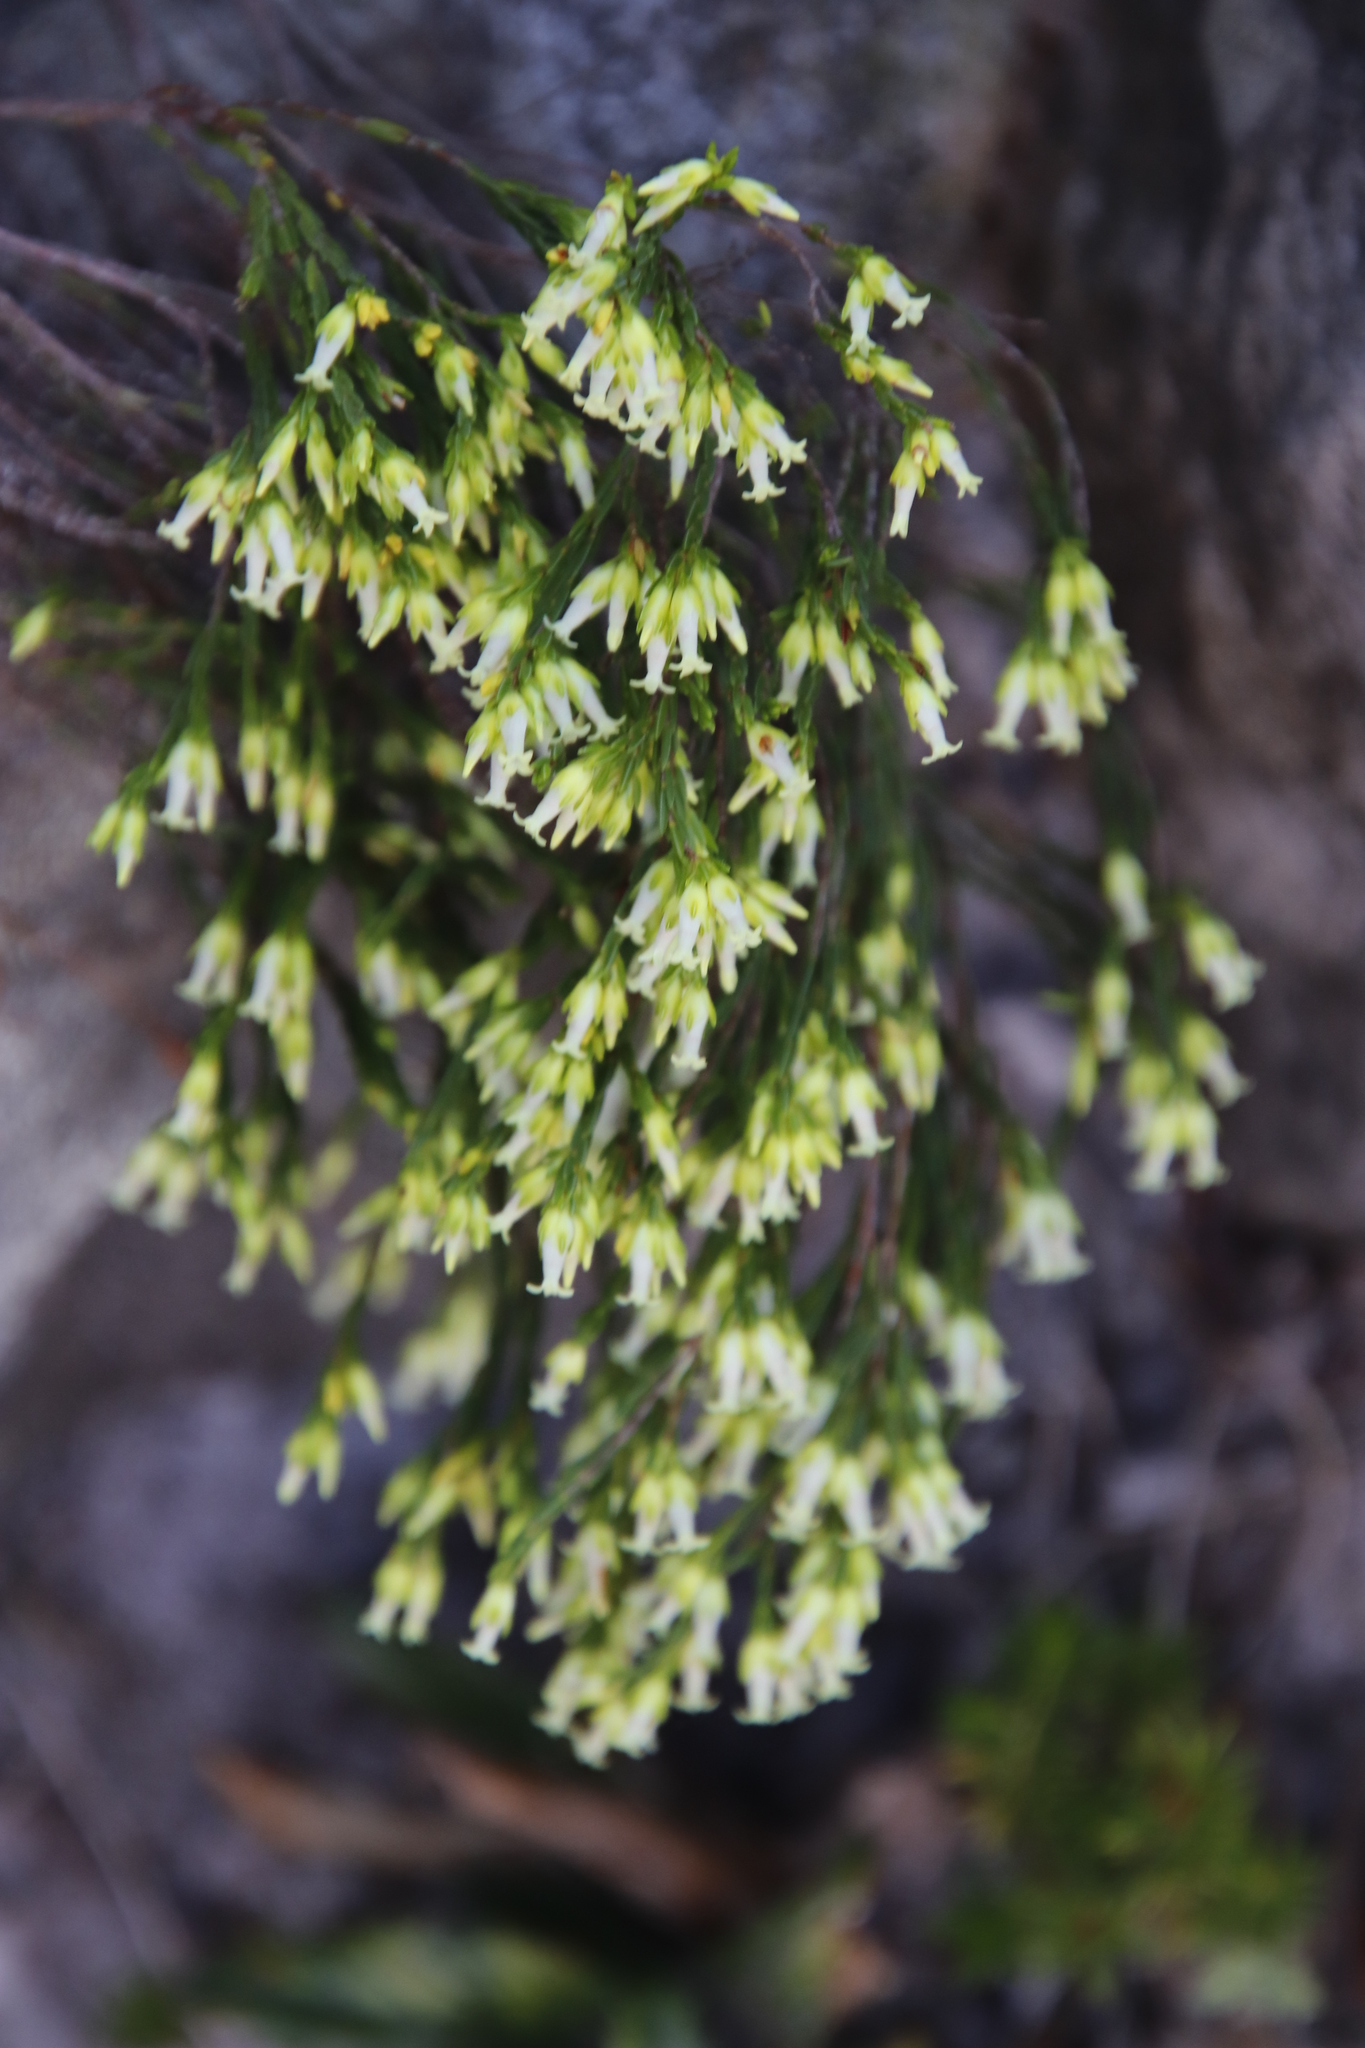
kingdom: Plantae
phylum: Tracheophyta
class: Magnoliopsida
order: Ericales
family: Ericaceae
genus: Erica
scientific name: Erica lutea
